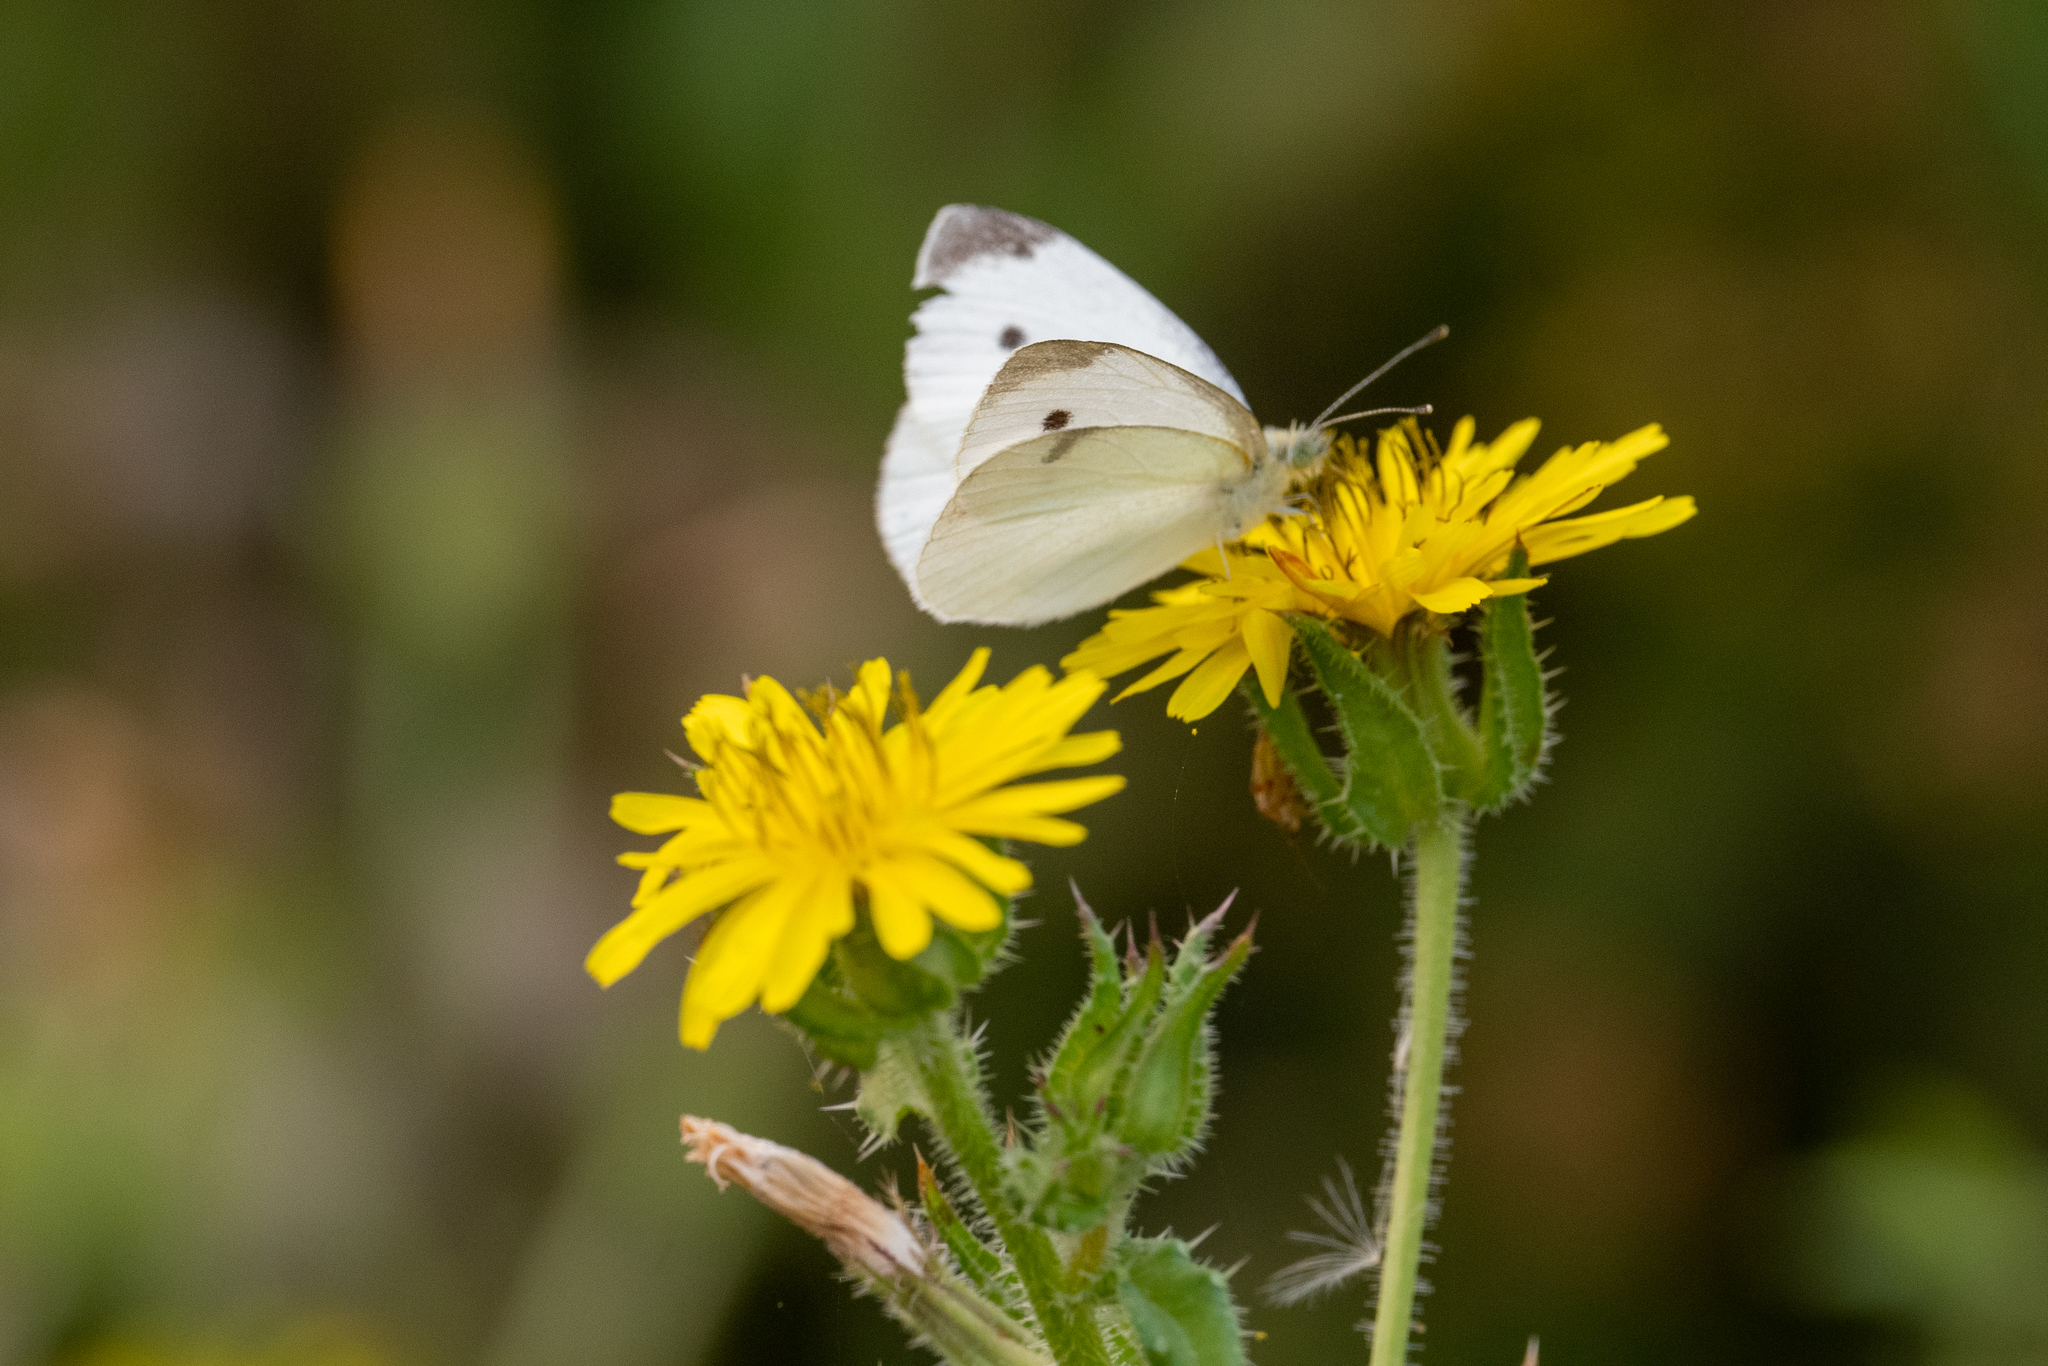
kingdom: Animalia
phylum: Arthropoda
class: Insecta
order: Lepidoptera
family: Pieridae
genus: Pieris
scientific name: Pieris rapae
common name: Small white
